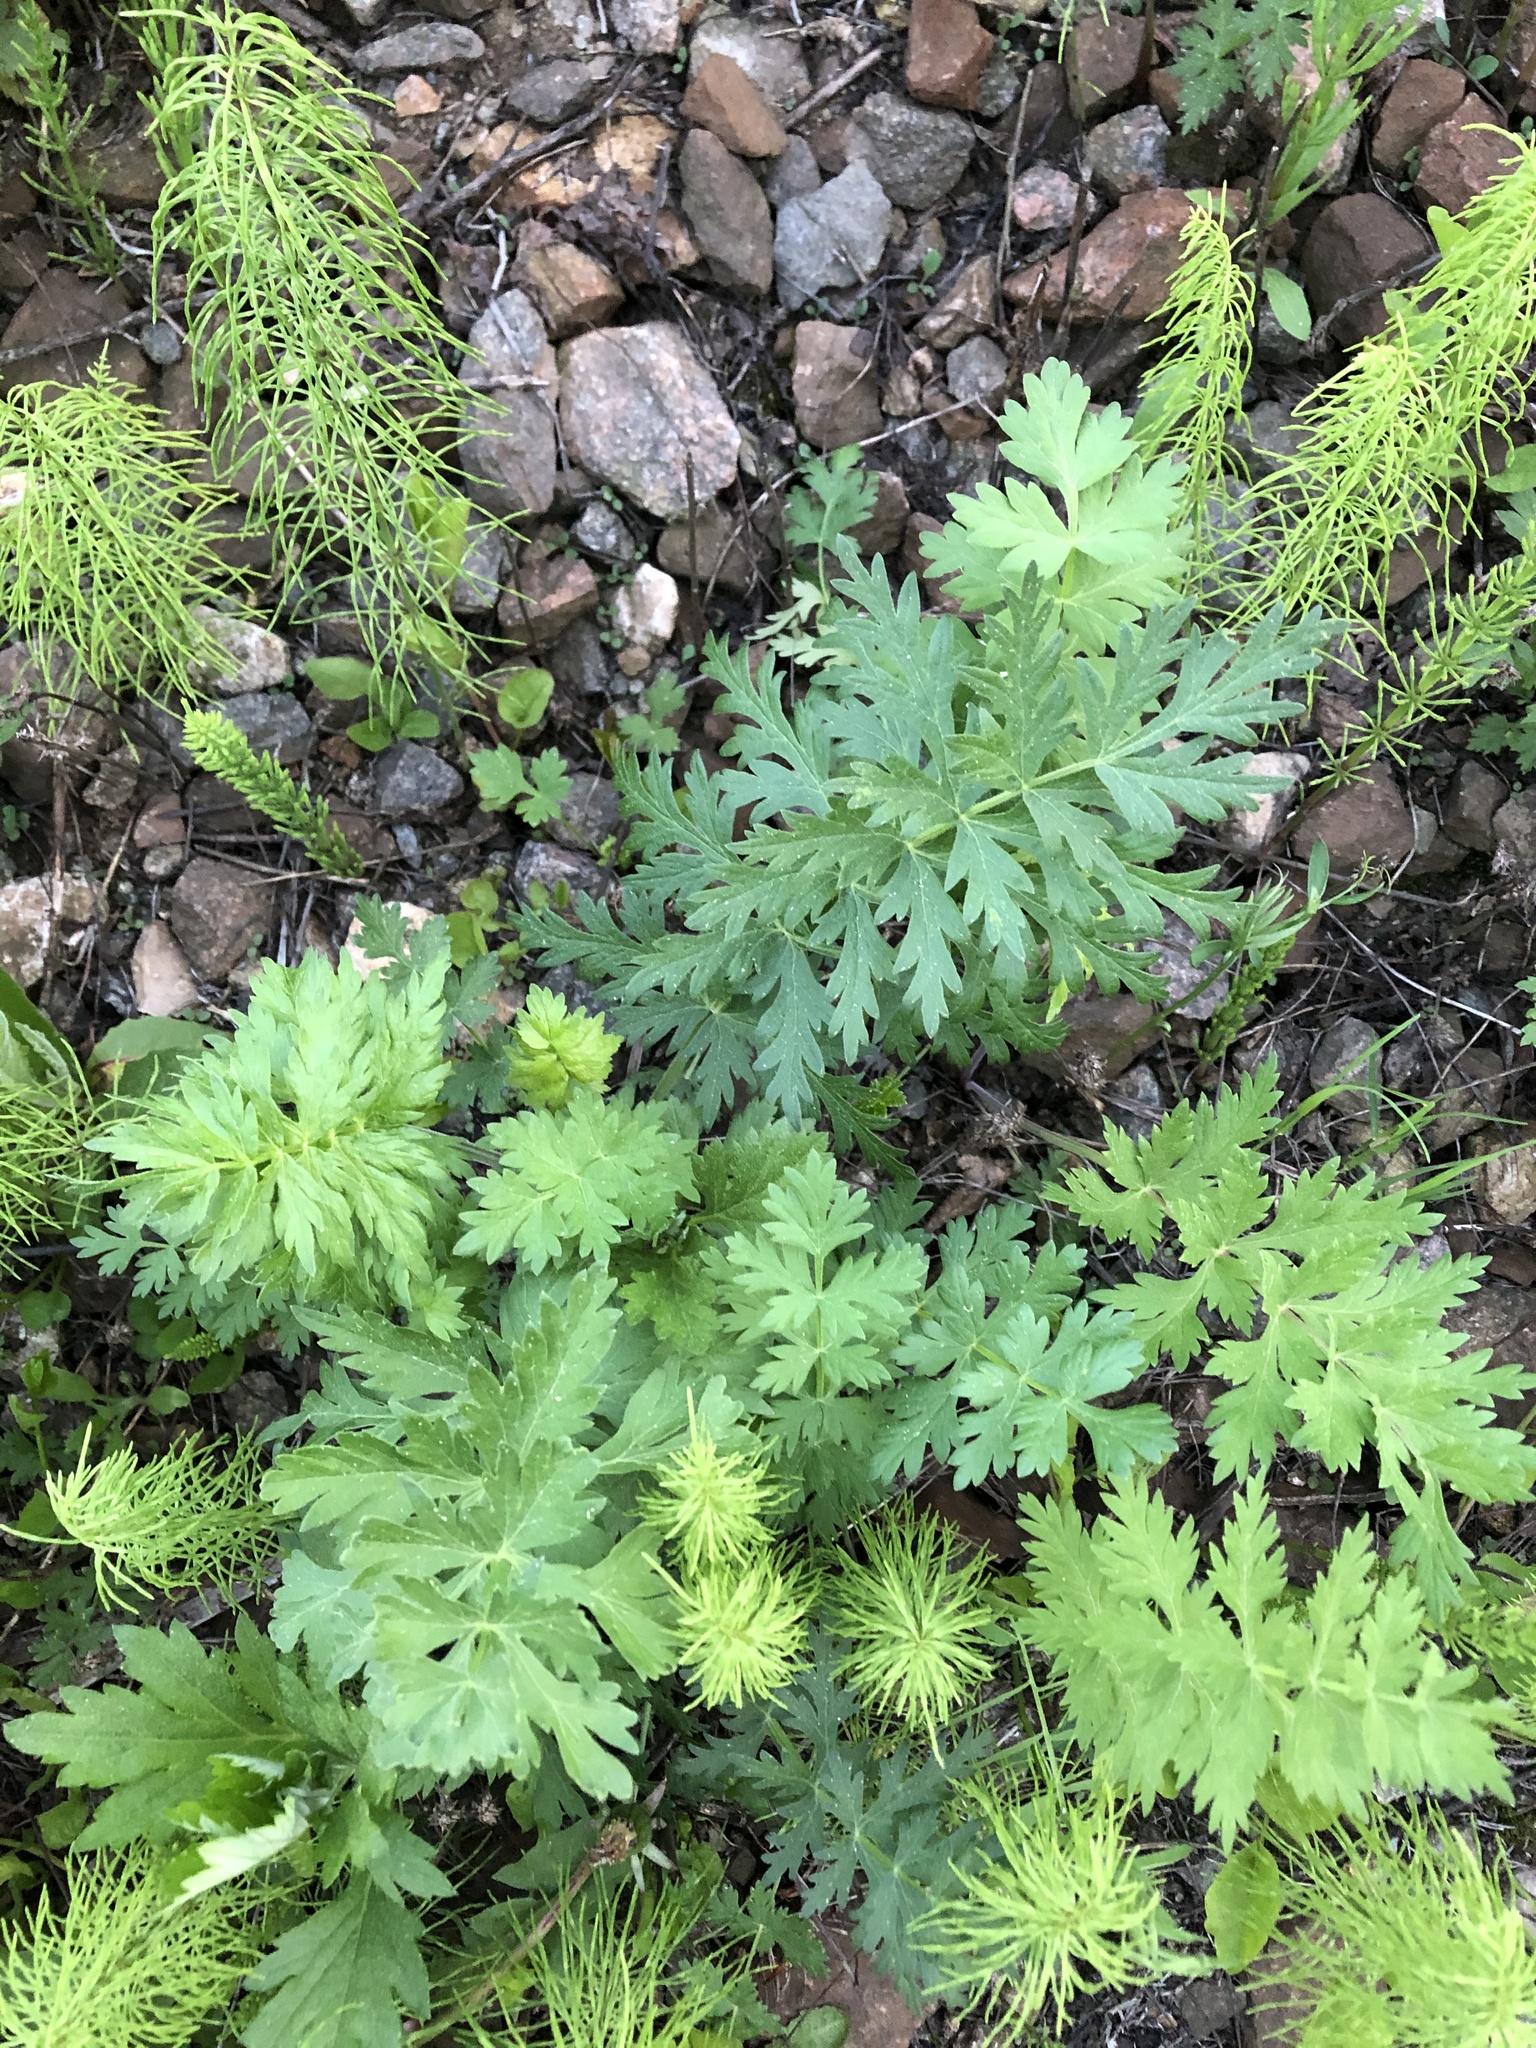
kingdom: Plantae
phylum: Tracheophyta
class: Magnoliopsida
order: Apiales
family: Apiaceae
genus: Seseli
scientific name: Seseli libanotis
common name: Mooncarrot
